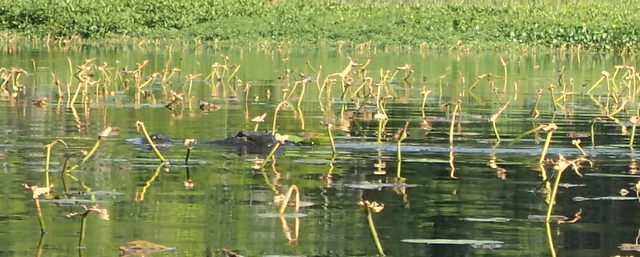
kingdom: Animalia
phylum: Chordata
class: Crocodylia
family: Alligatoridae
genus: Alligator
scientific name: Alligator mississippiensis
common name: American alligator
